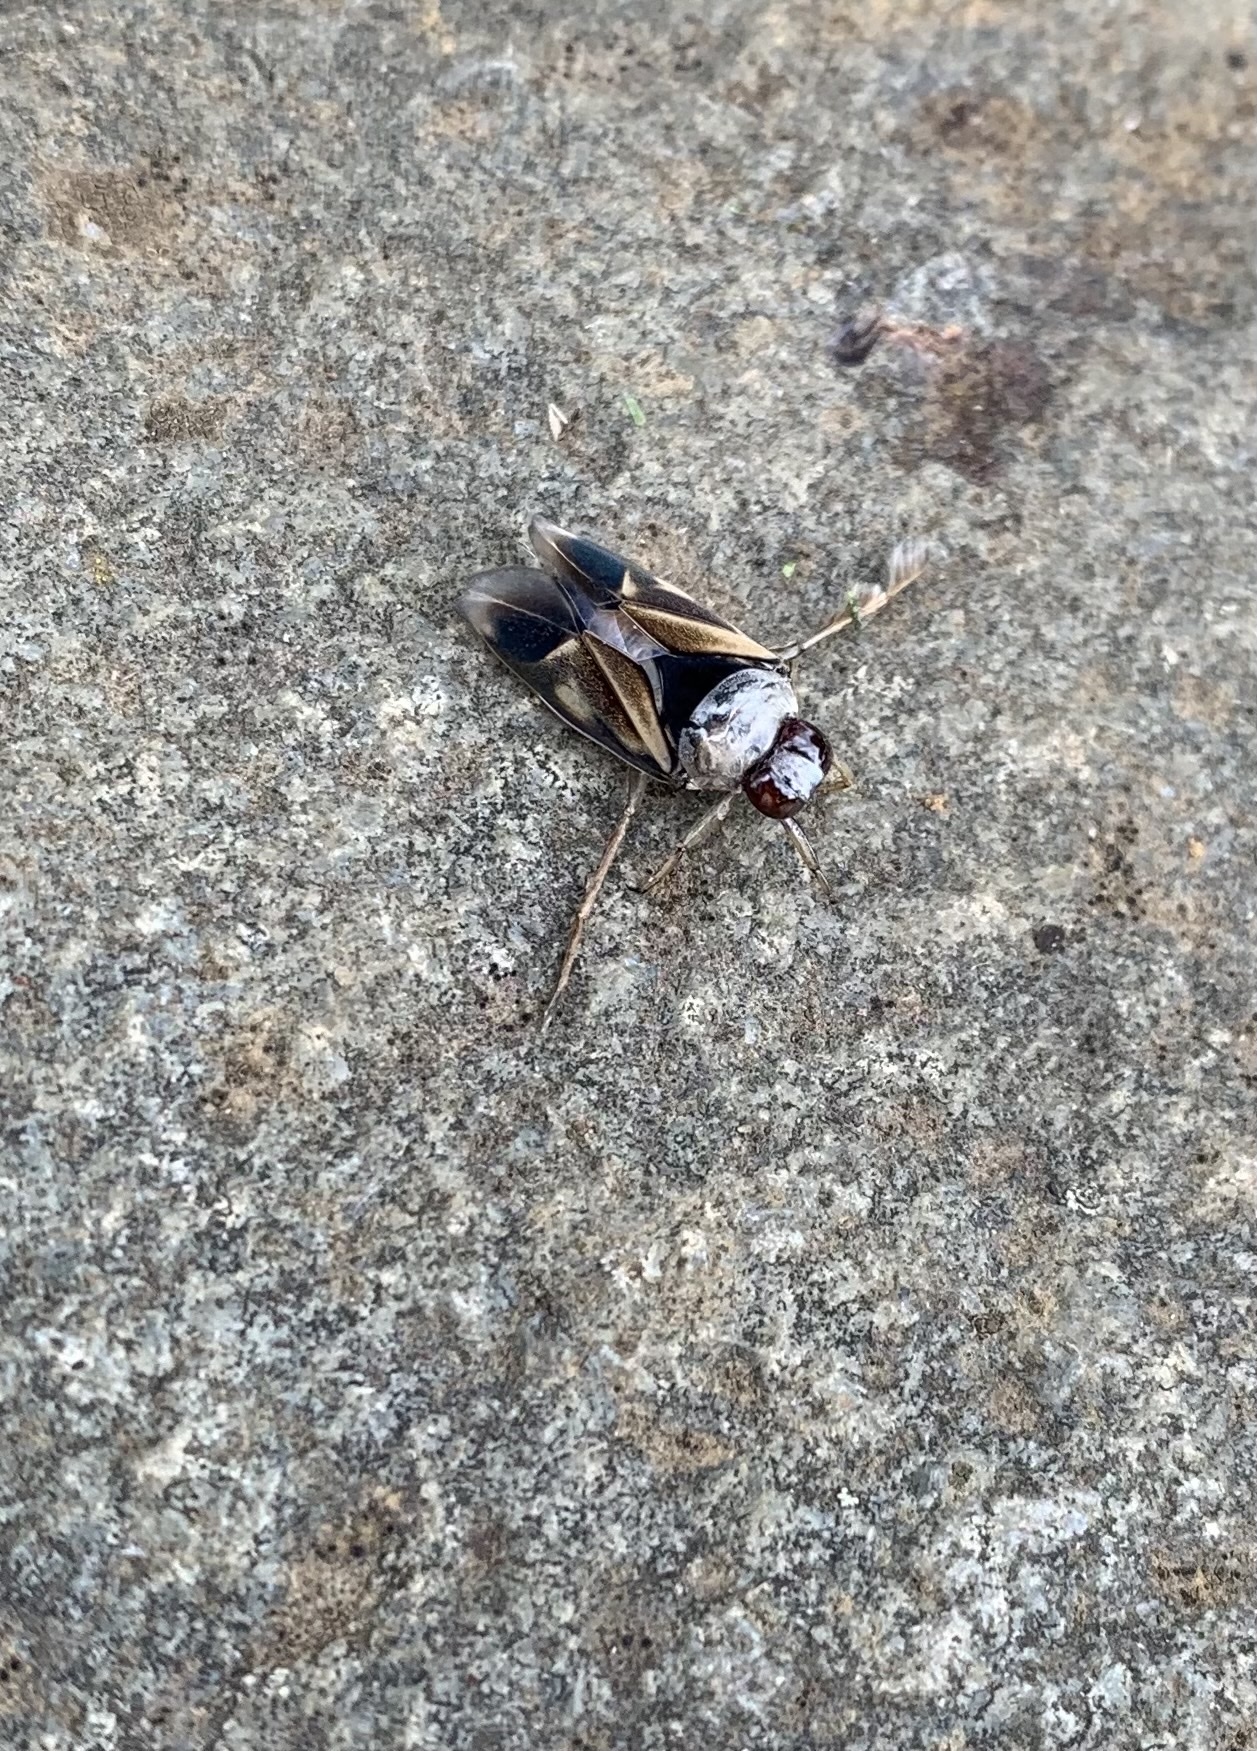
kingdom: Animalia
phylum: Arthropoda
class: Insecta
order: Hemiptera
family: Notonectidae
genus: Notonecta
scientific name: Notonecta
